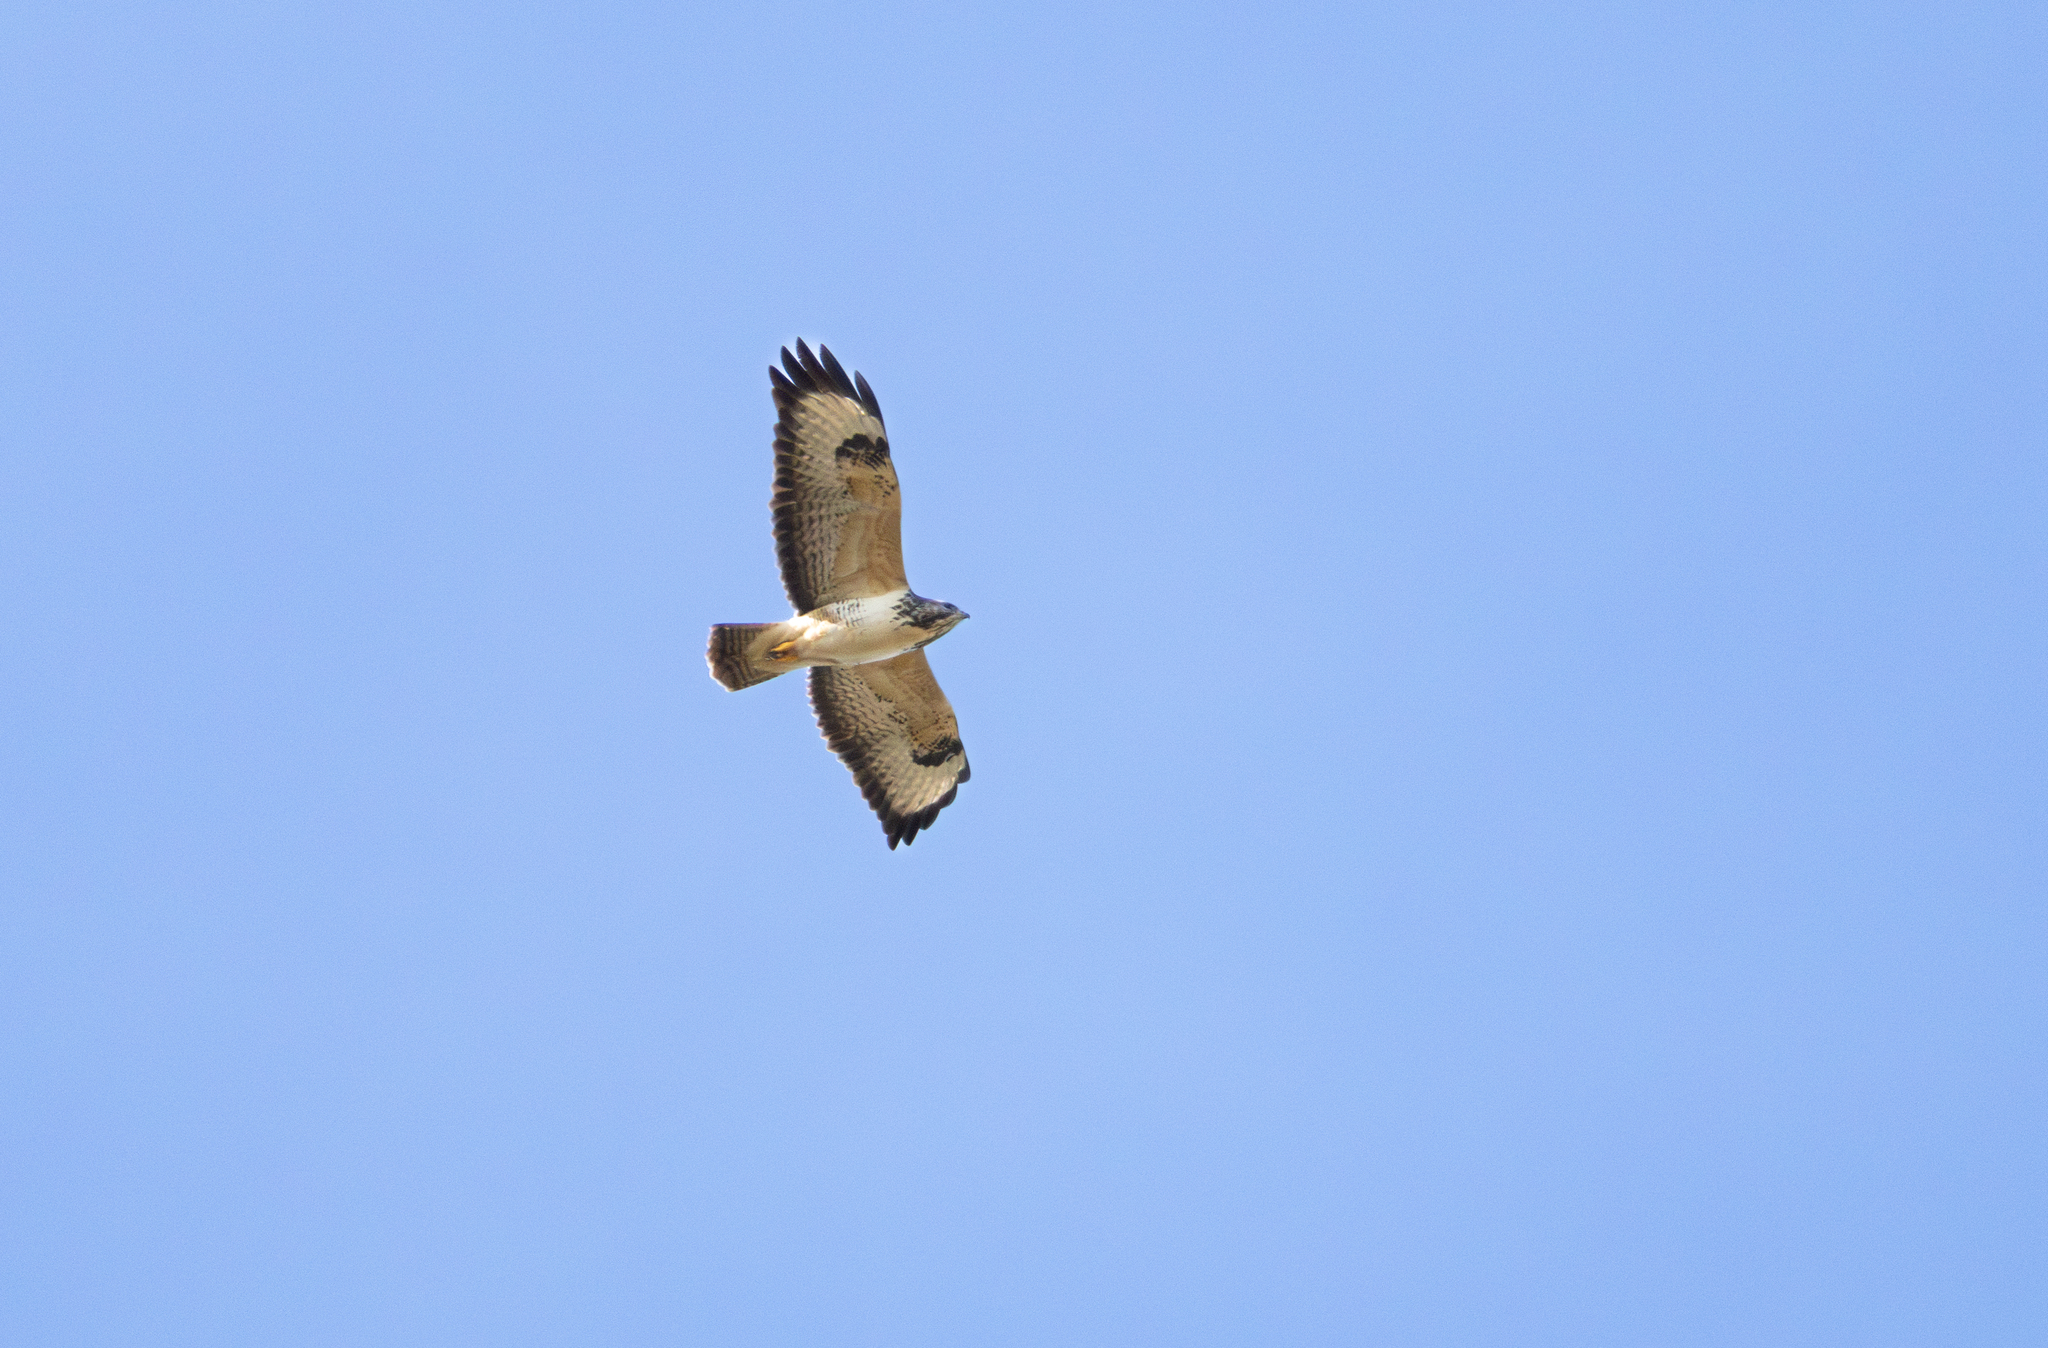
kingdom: Animalia
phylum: Chordata
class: Aves
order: Accipitriformes
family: Accipitridae
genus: Buteo
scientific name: Buteo buteo
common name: Common buzzard
